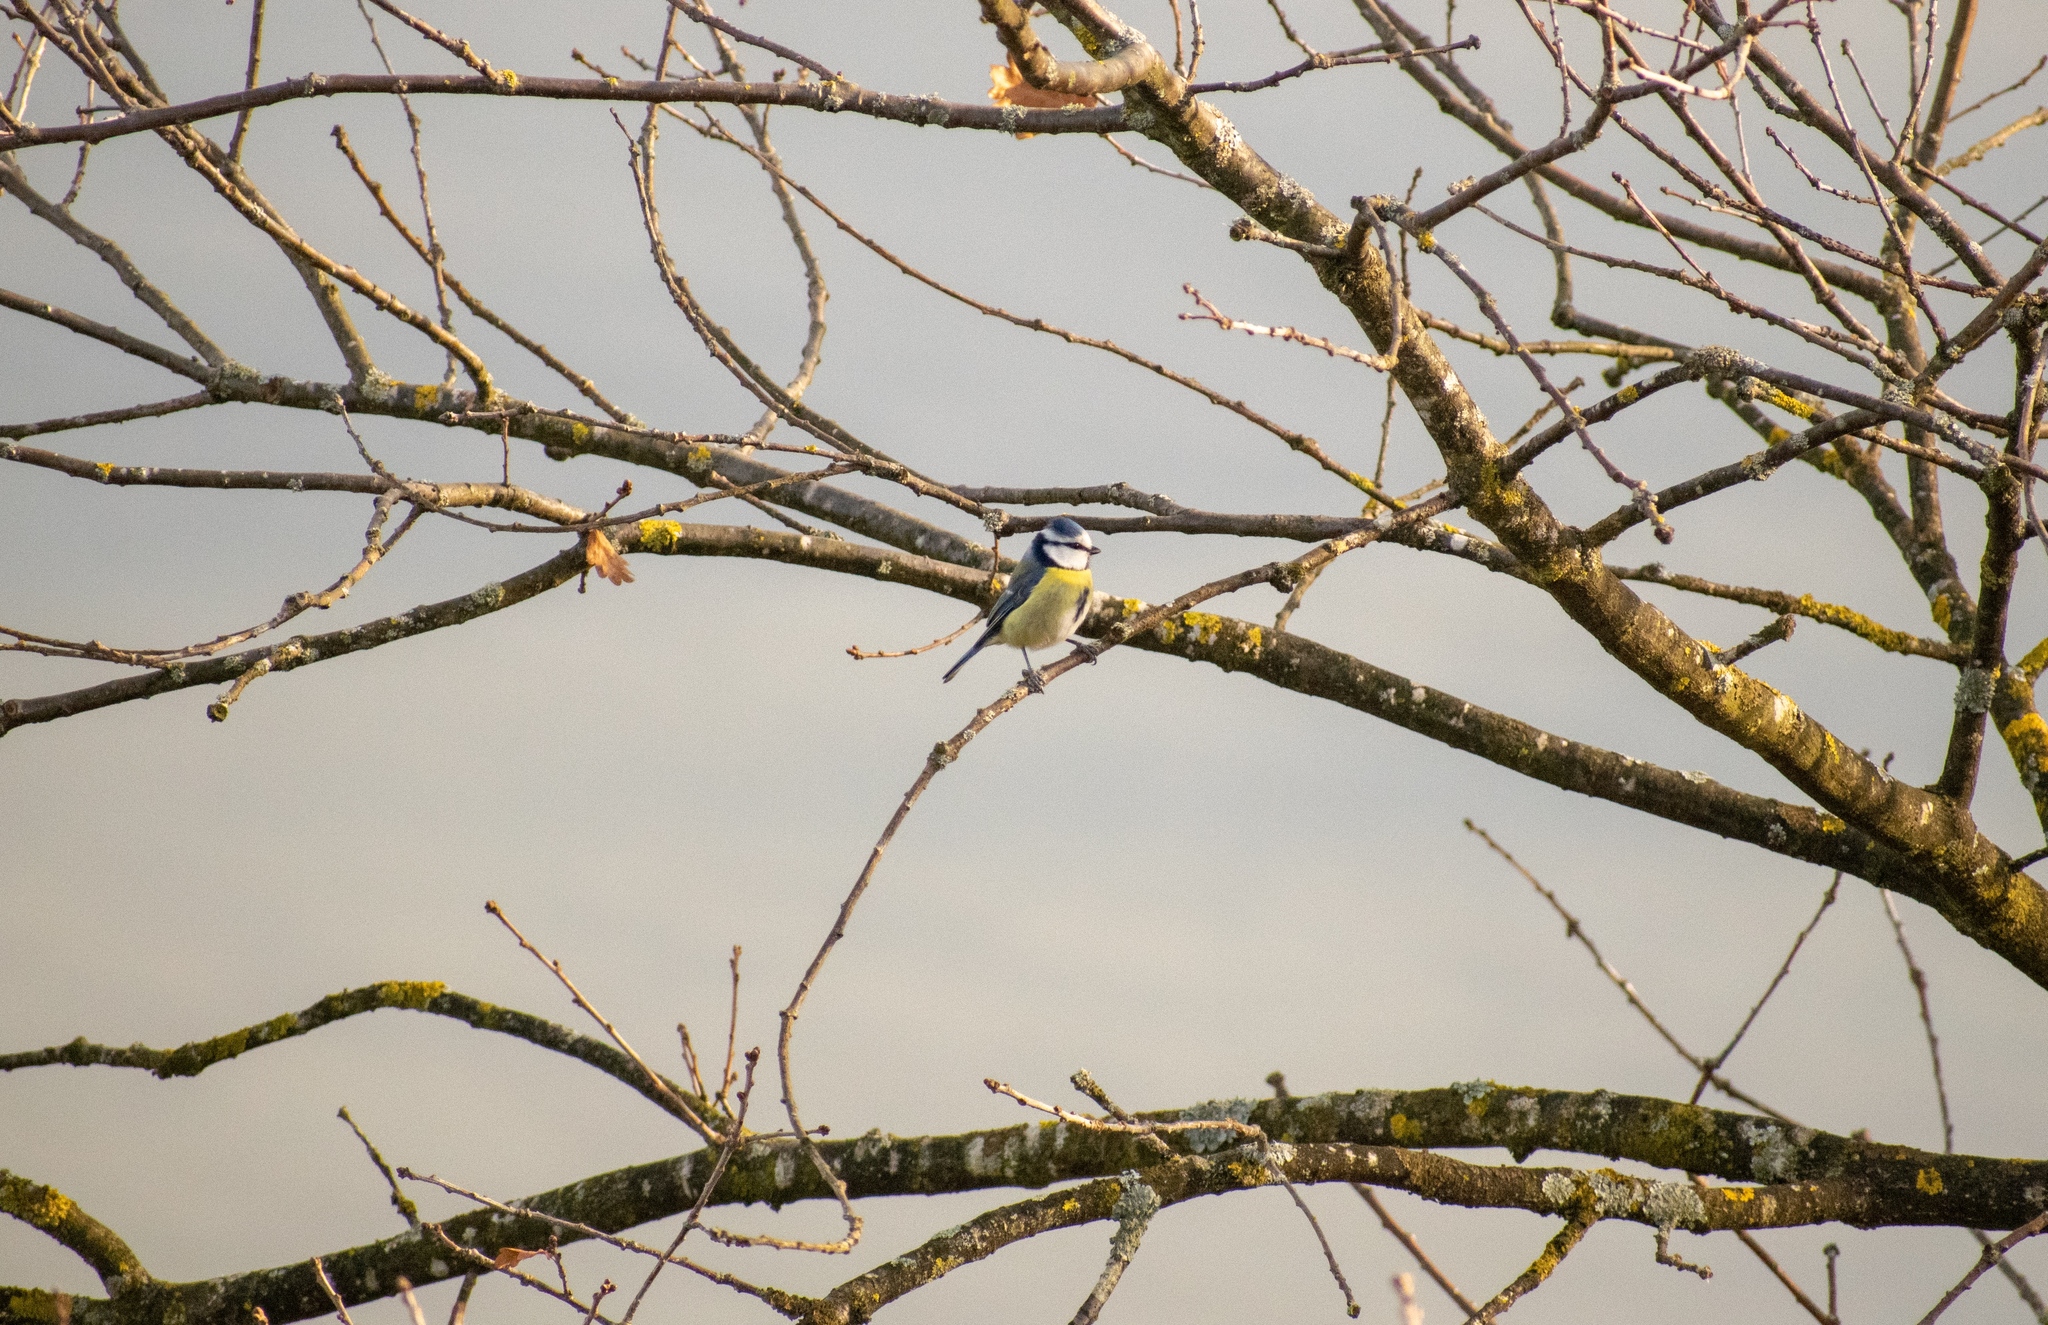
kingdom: Animalia
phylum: Chordata
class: Aves
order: Passeriformes
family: Paridae
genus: Cyanistes
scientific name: Cyanistes caeruleus
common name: Eurasian blue tit
